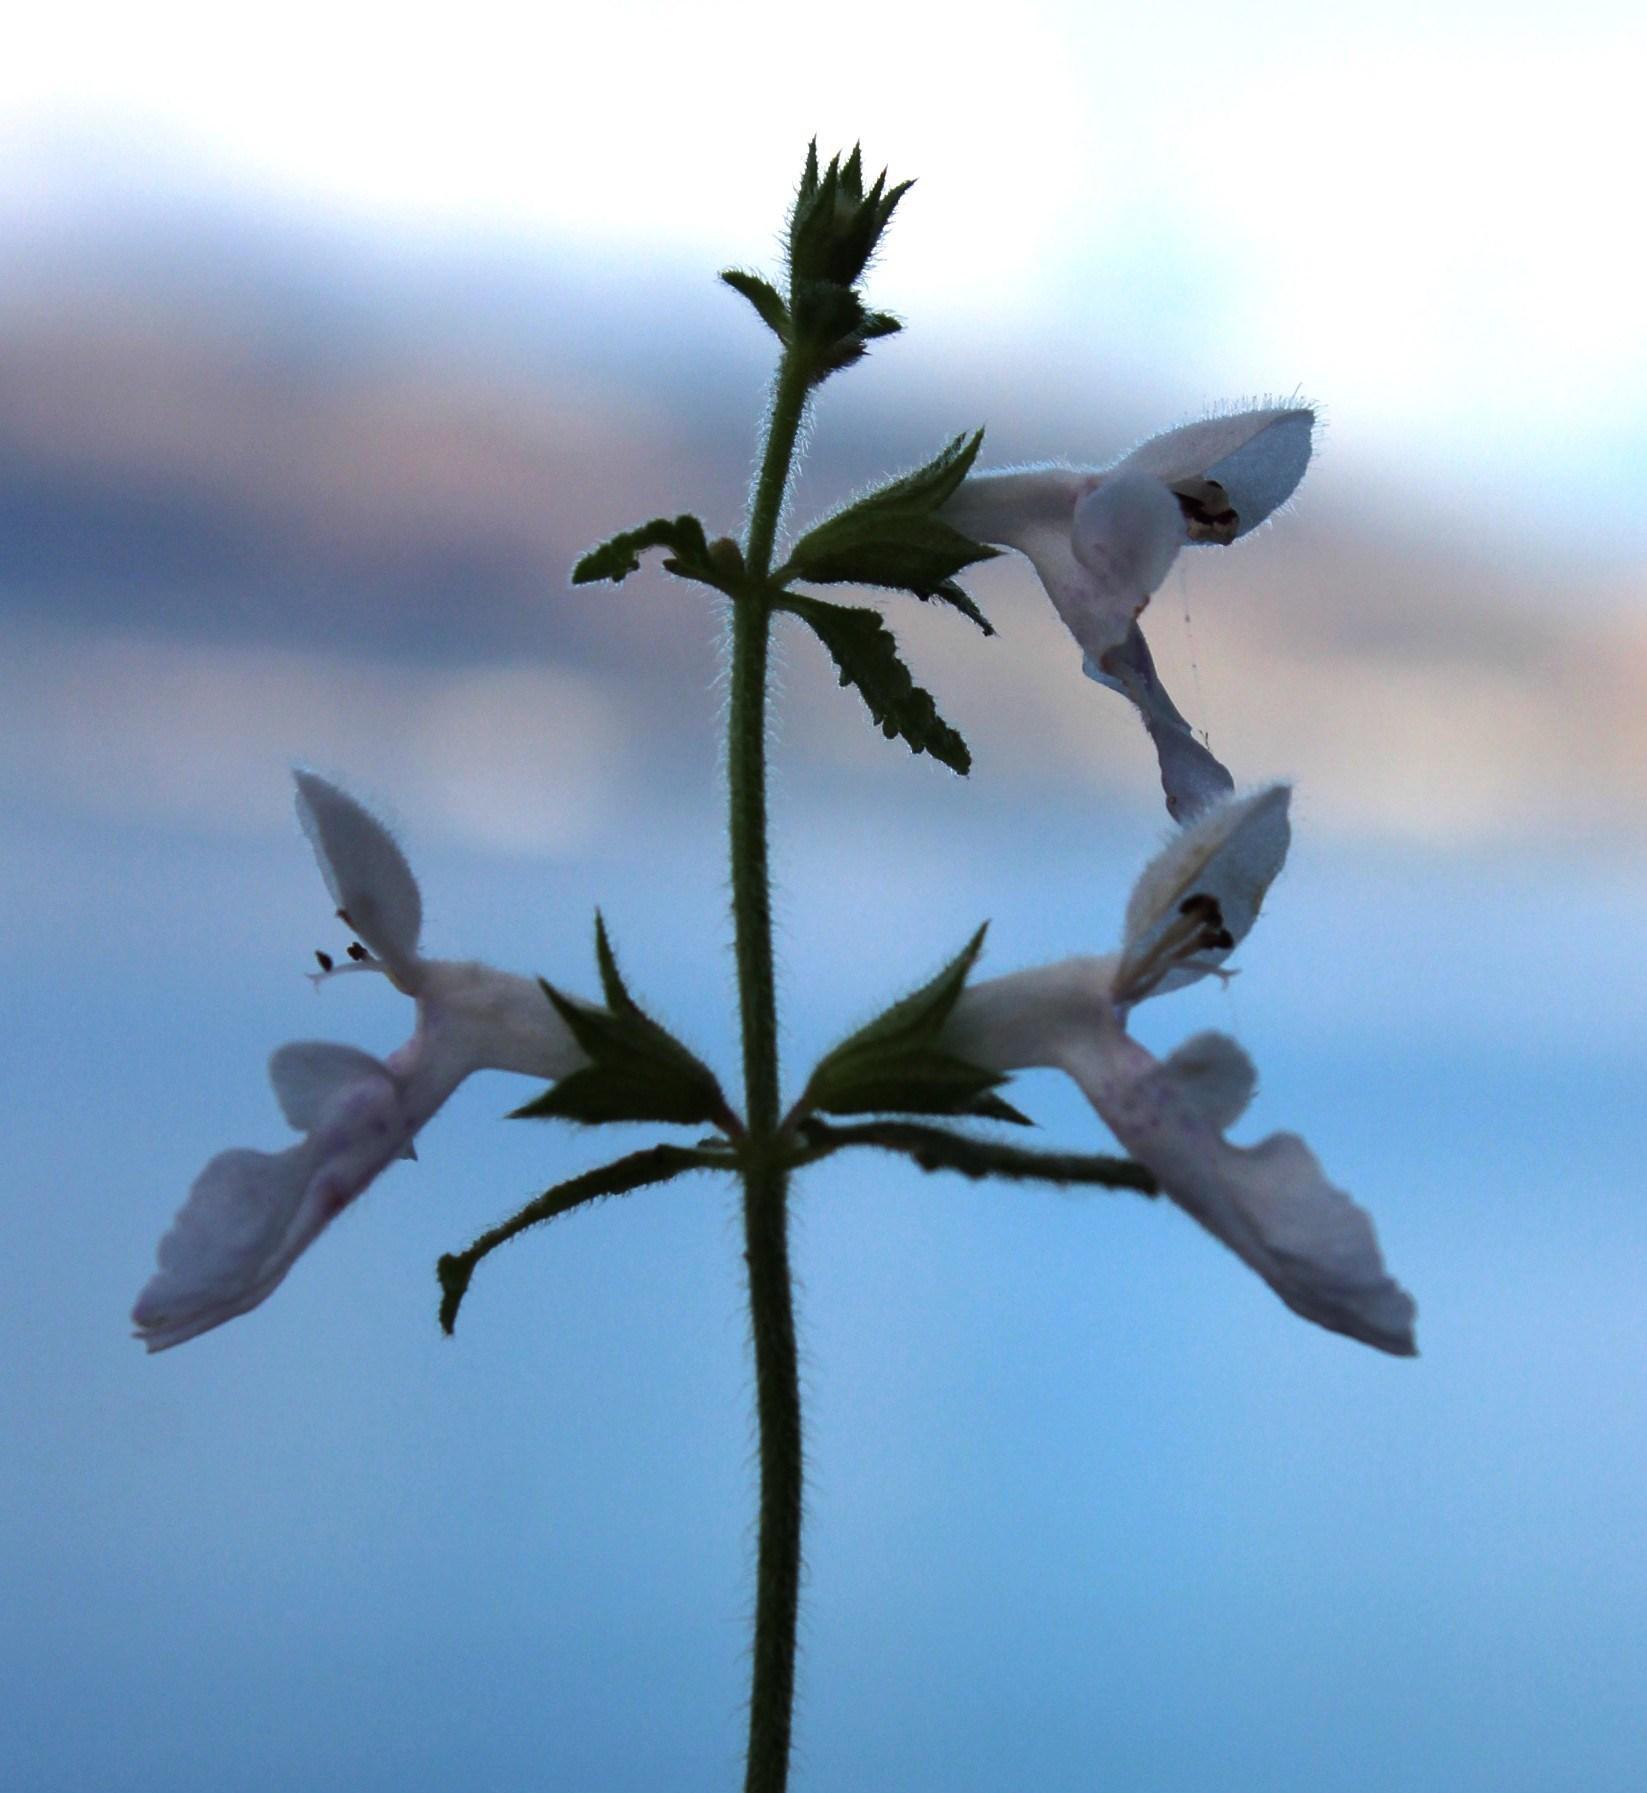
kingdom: Plantae
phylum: Tracheophyta
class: Magnoliopsida
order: Lamiales
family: Lamiaceae
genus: Stachys
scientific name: Stachys aethiopica
